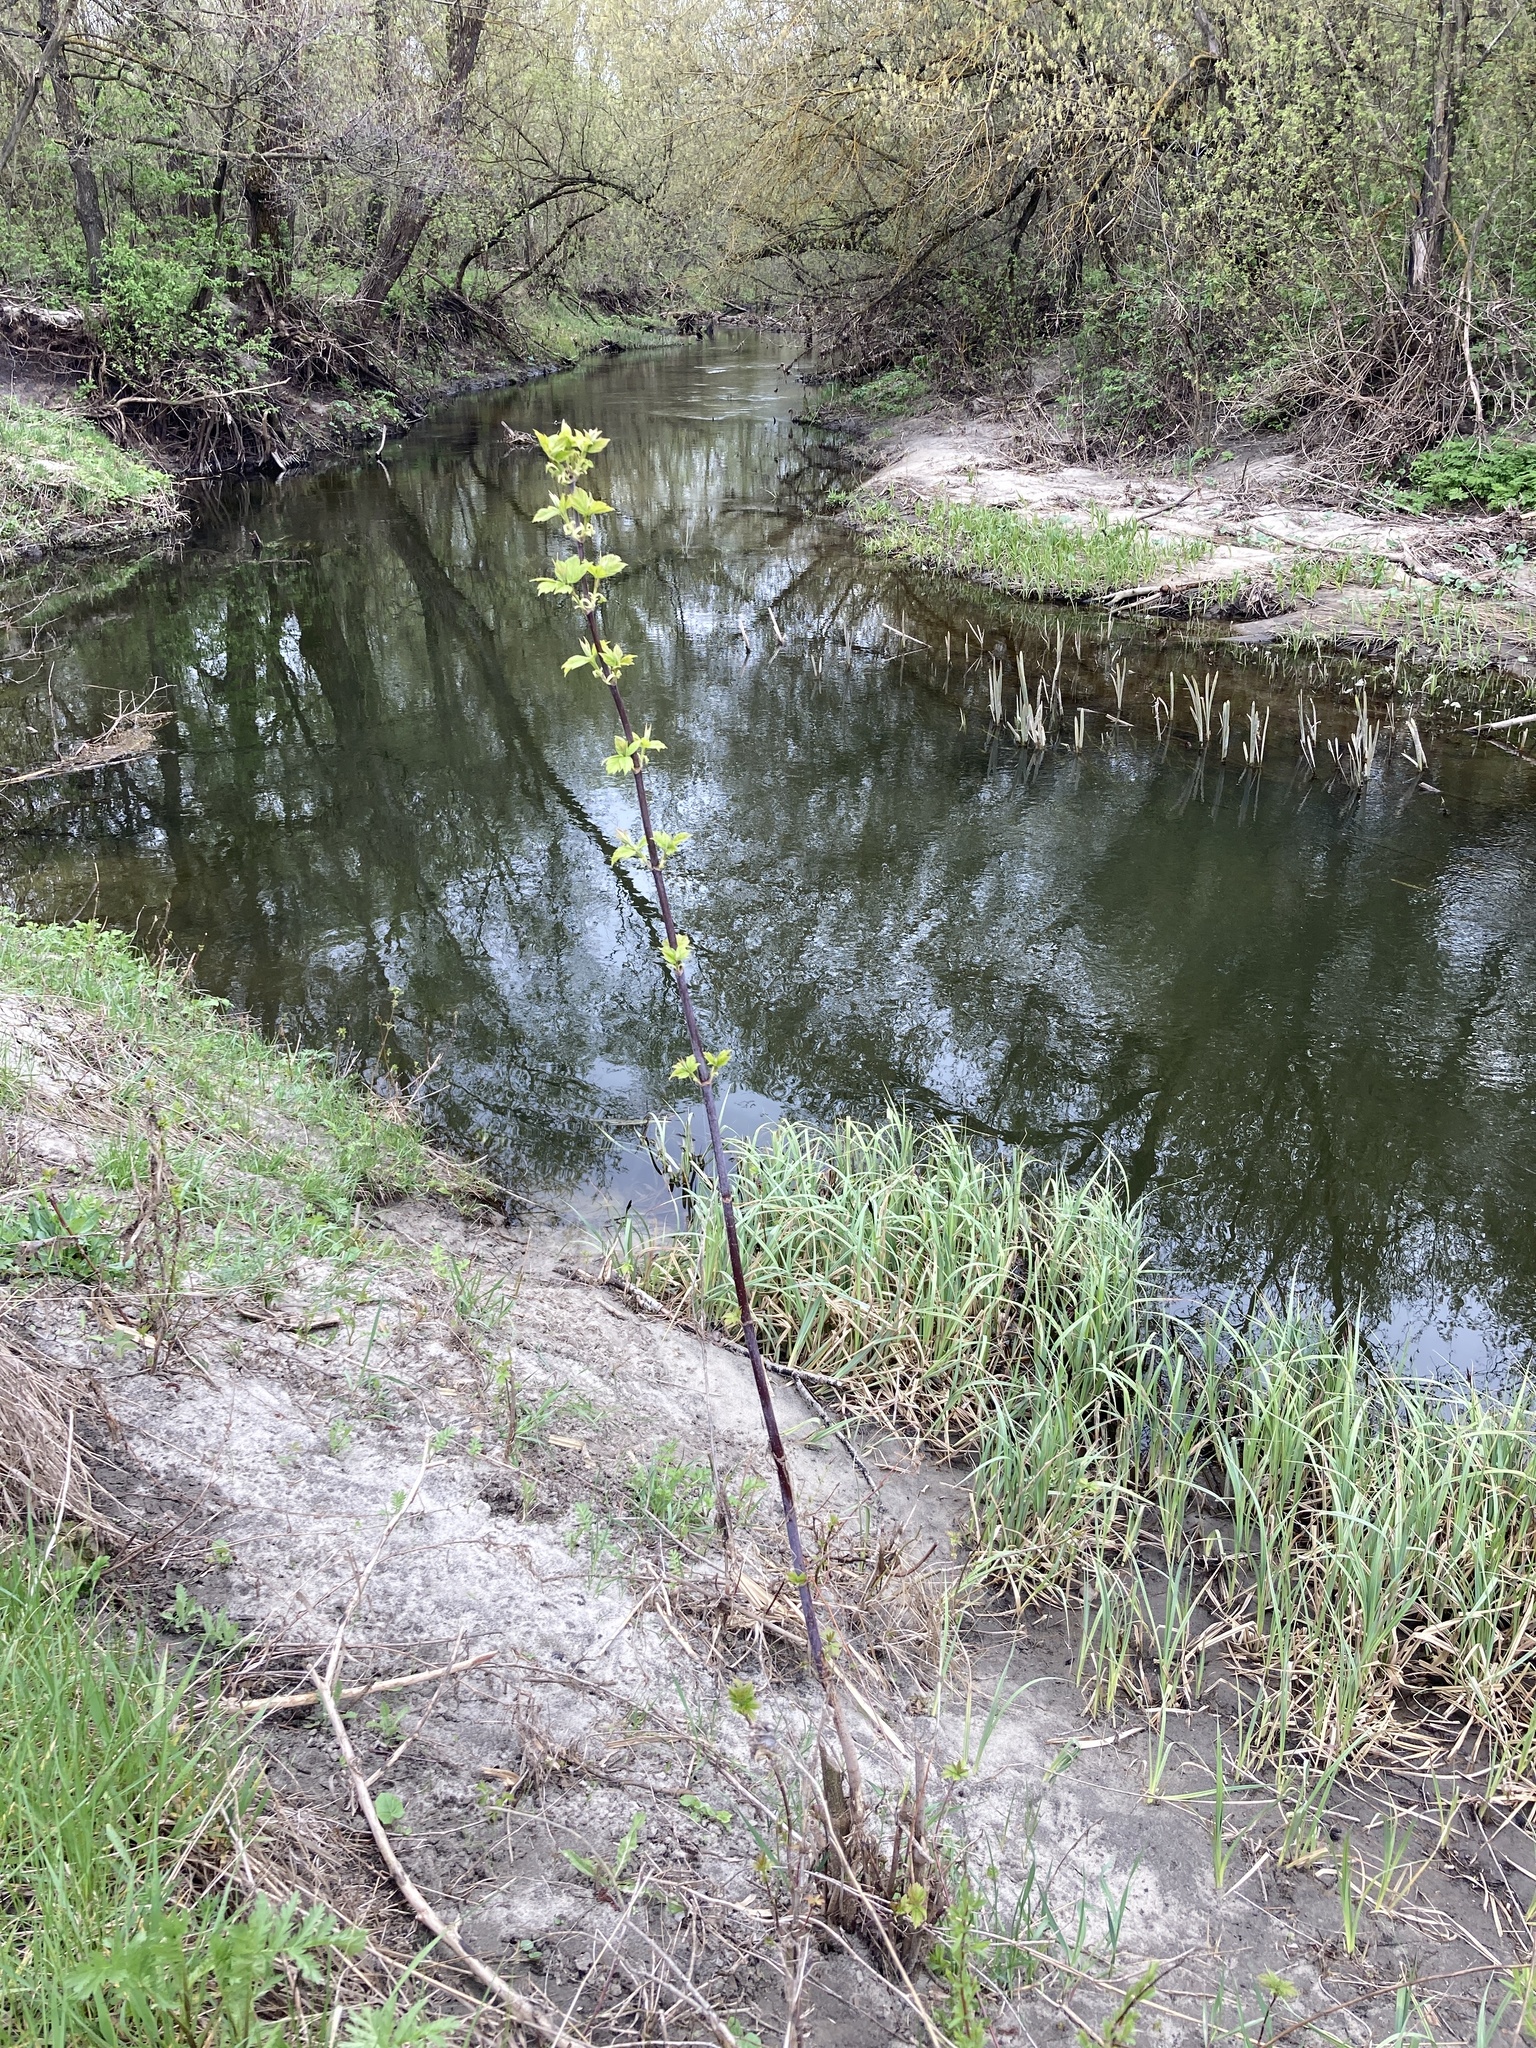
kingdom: Plantae
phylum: Tracheophyta
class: Magnoliopsida
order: Sapindales
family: Sapindaceae
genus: Acer
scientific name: Acer negundo
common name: Ashleaf maple
